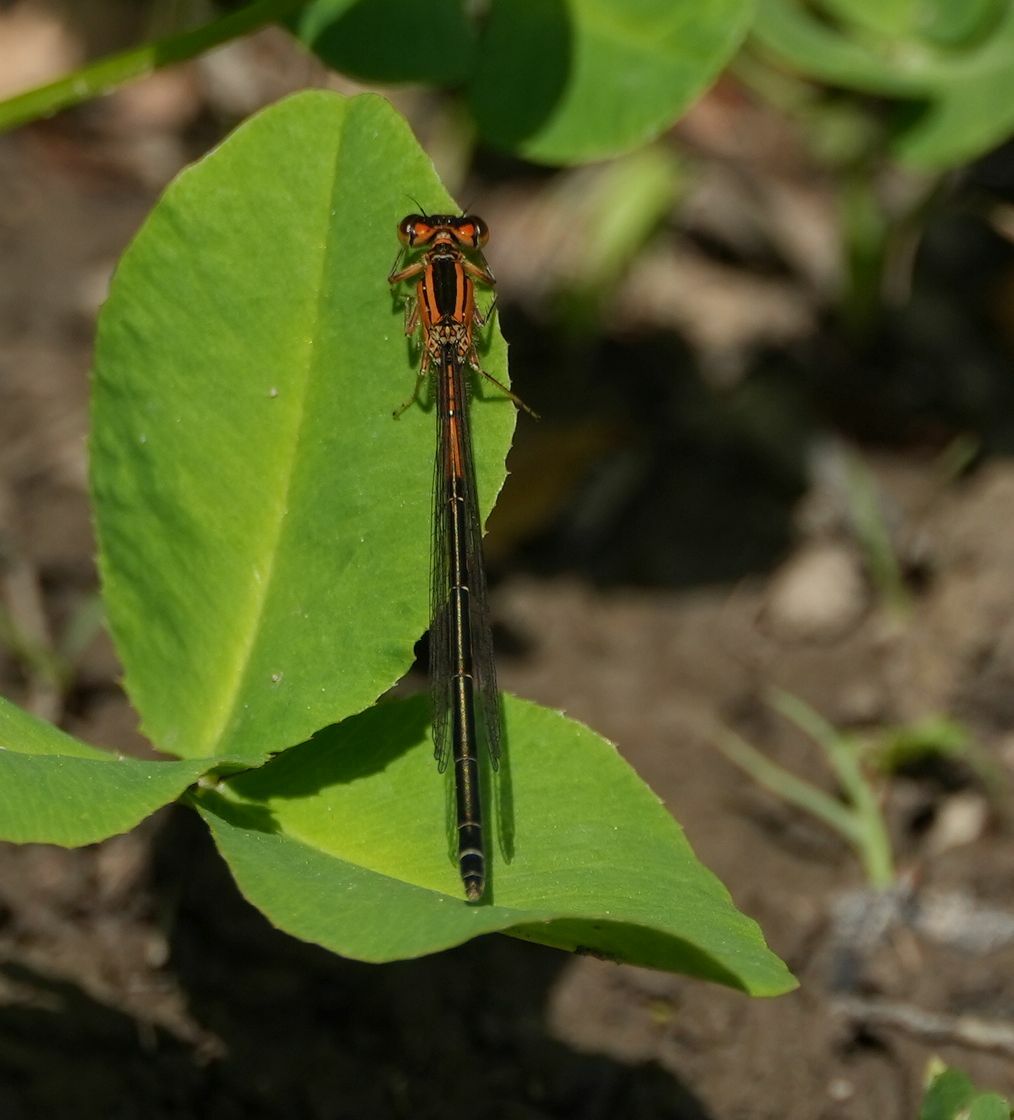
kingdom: Animalia
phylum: Arthropoda
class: Insecta
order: Odonata
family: Coenagrionidae
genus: Ischnura
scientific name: Ischnura verticalis
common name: Eastern forktail
